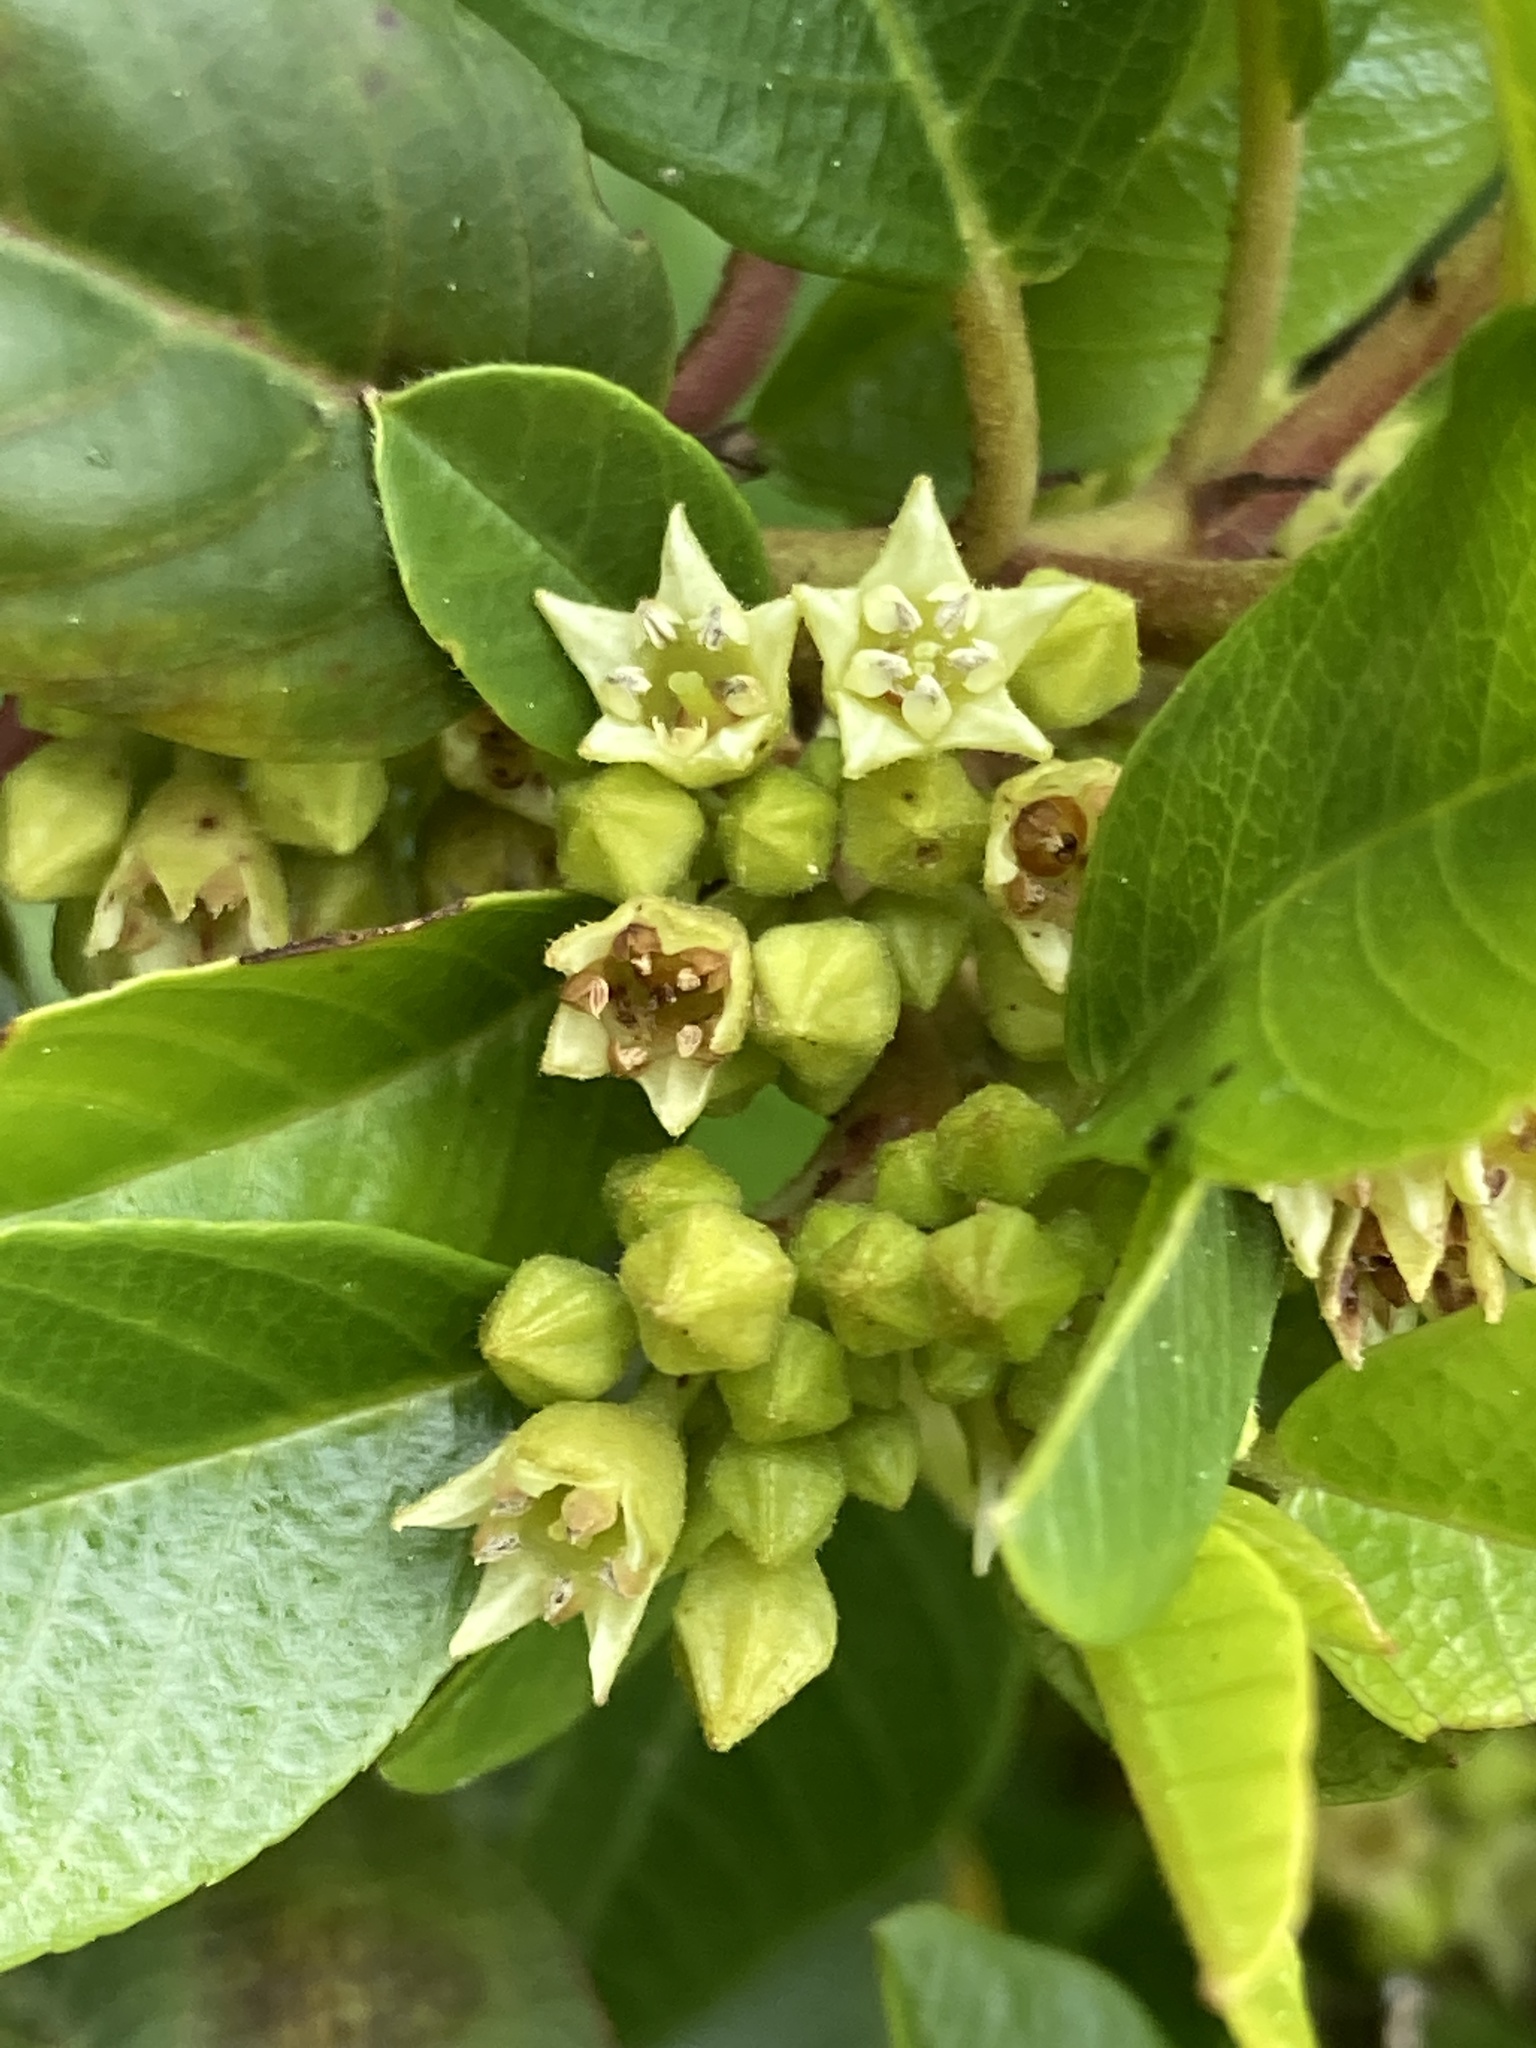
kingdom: Plantae
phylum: Tracheophyta
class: Magnoliopsida
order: Rosales
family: Rhamnaceae
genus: Frangula
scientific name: Frangula californica
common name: California buckthorn
